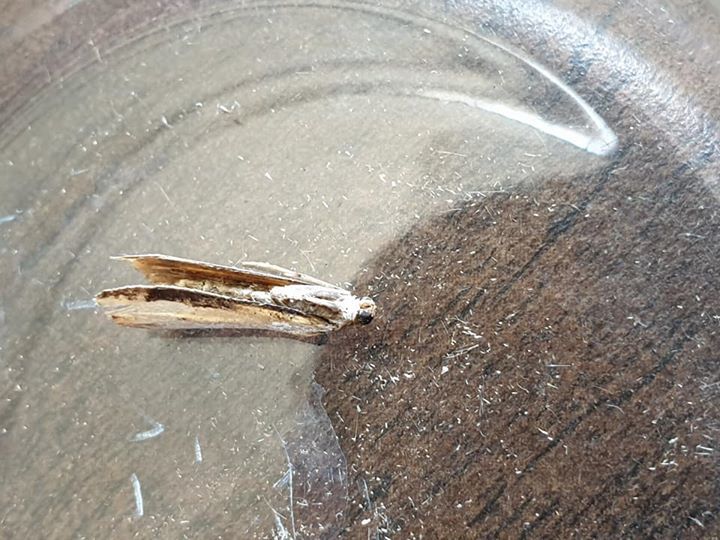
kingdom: Animalia
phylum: Arthropoda
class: Insecta
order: Lepidoptera
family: Crambidae
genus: Orocrambus
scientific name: Orocrambus flexuosellus
